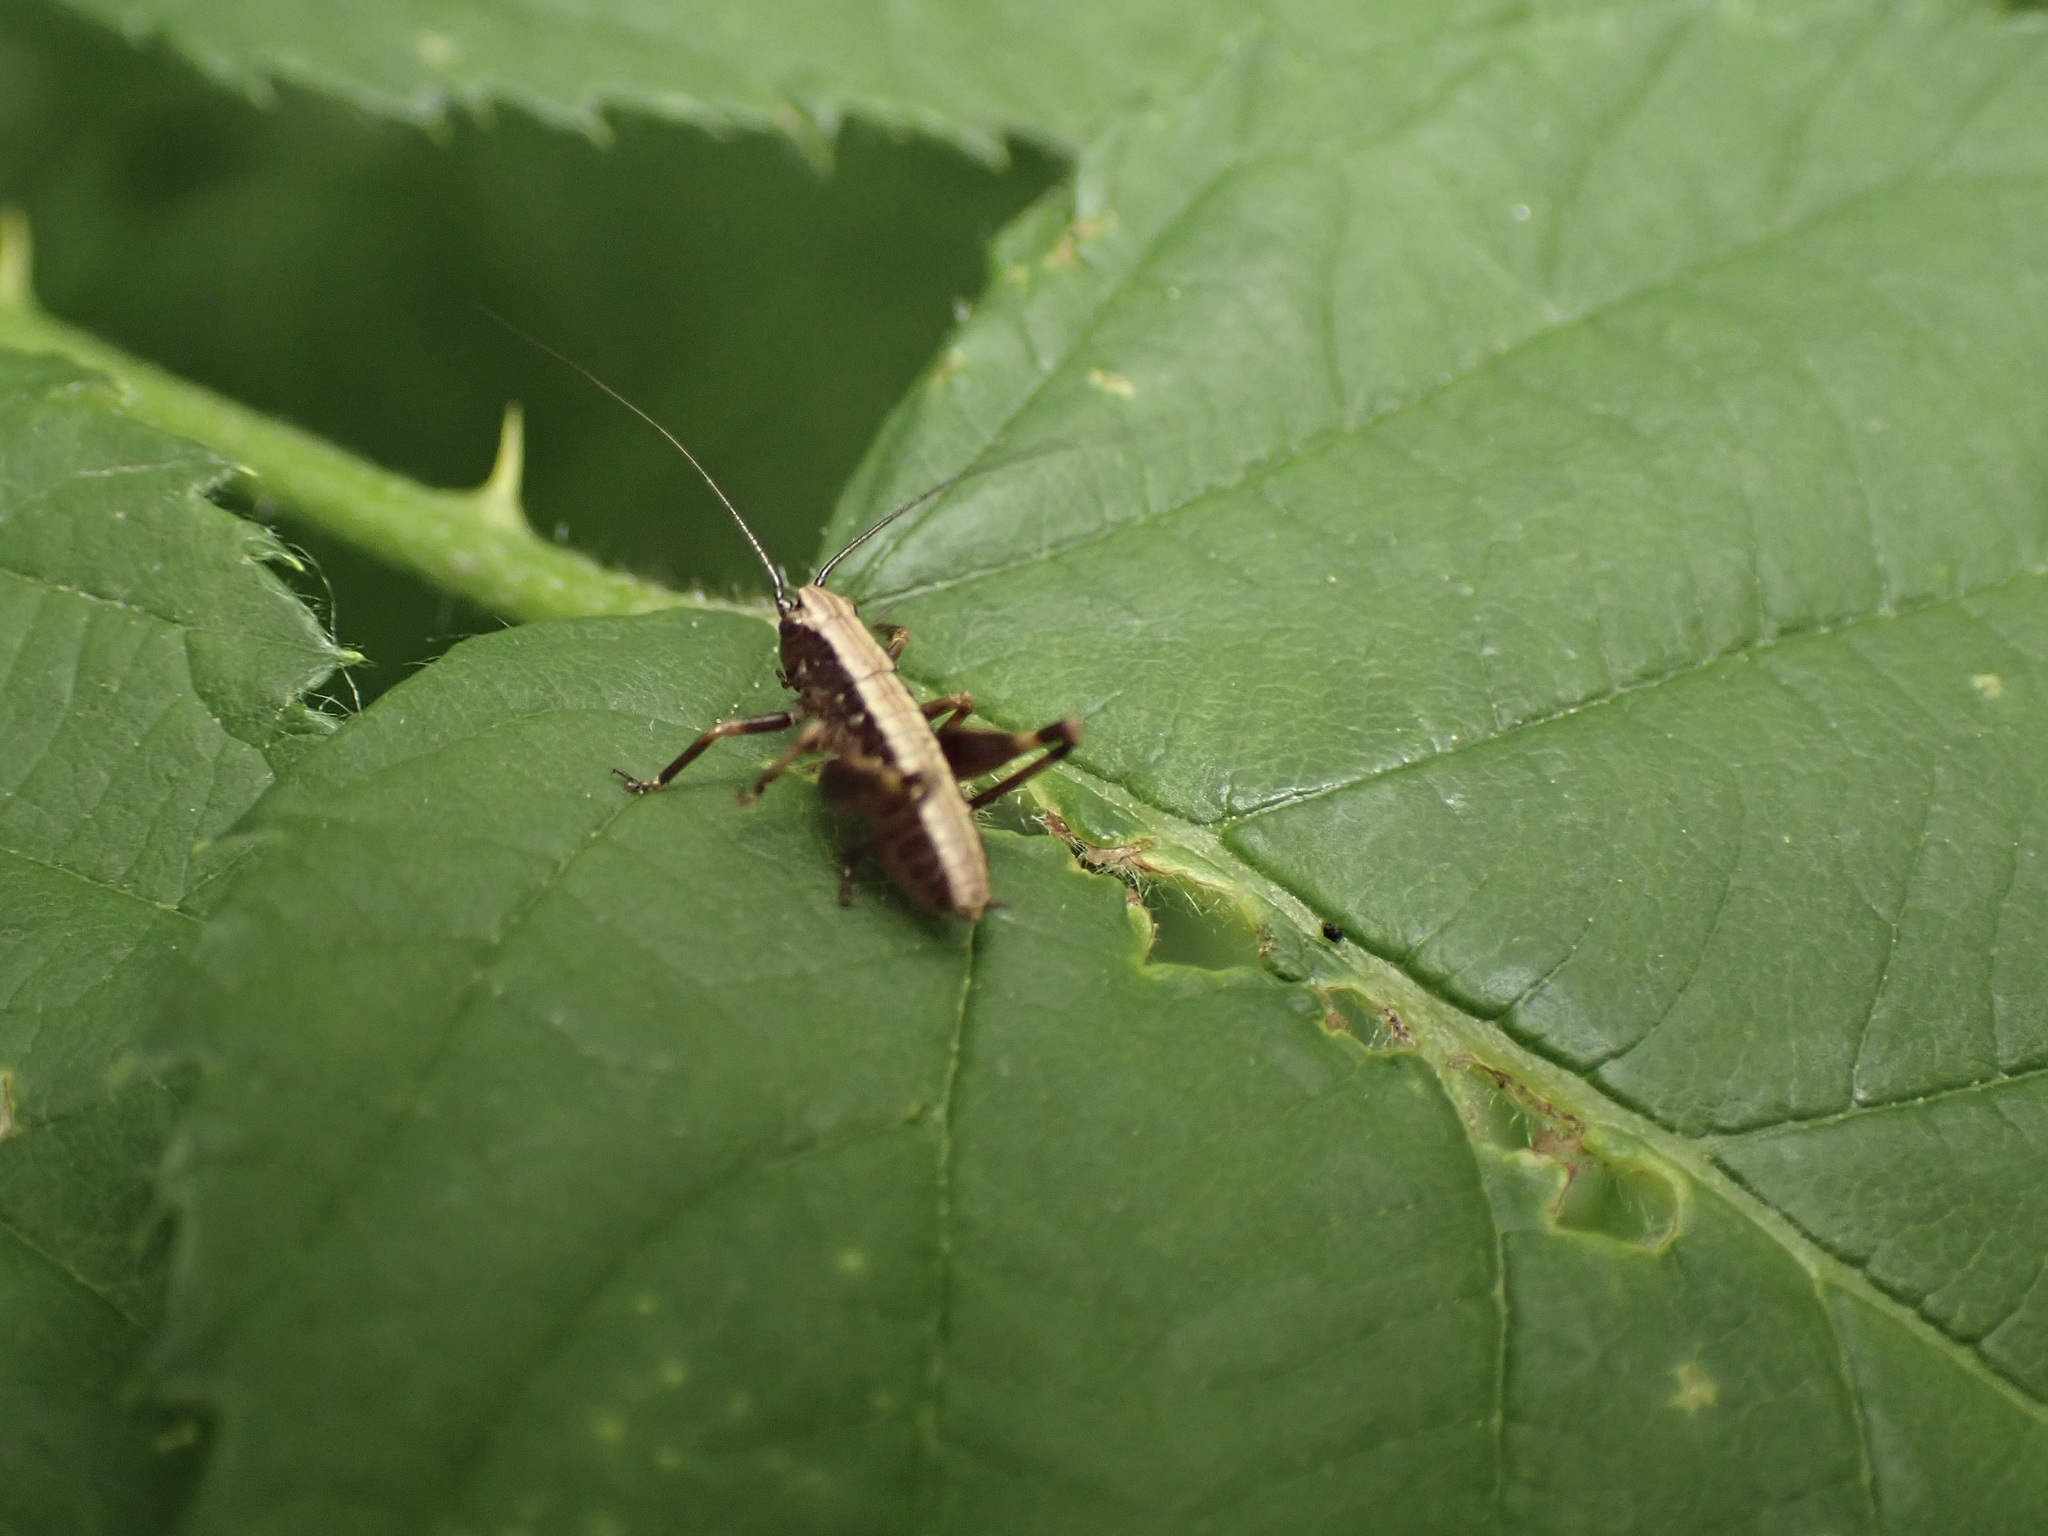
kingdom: Animalia
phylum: Arthropoda
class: Insecta
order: Orthoptera
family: Tettigoniidae
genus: Pholidoptera
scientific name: Pholidoptera griseoaptera
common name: Dark bush-cricket
